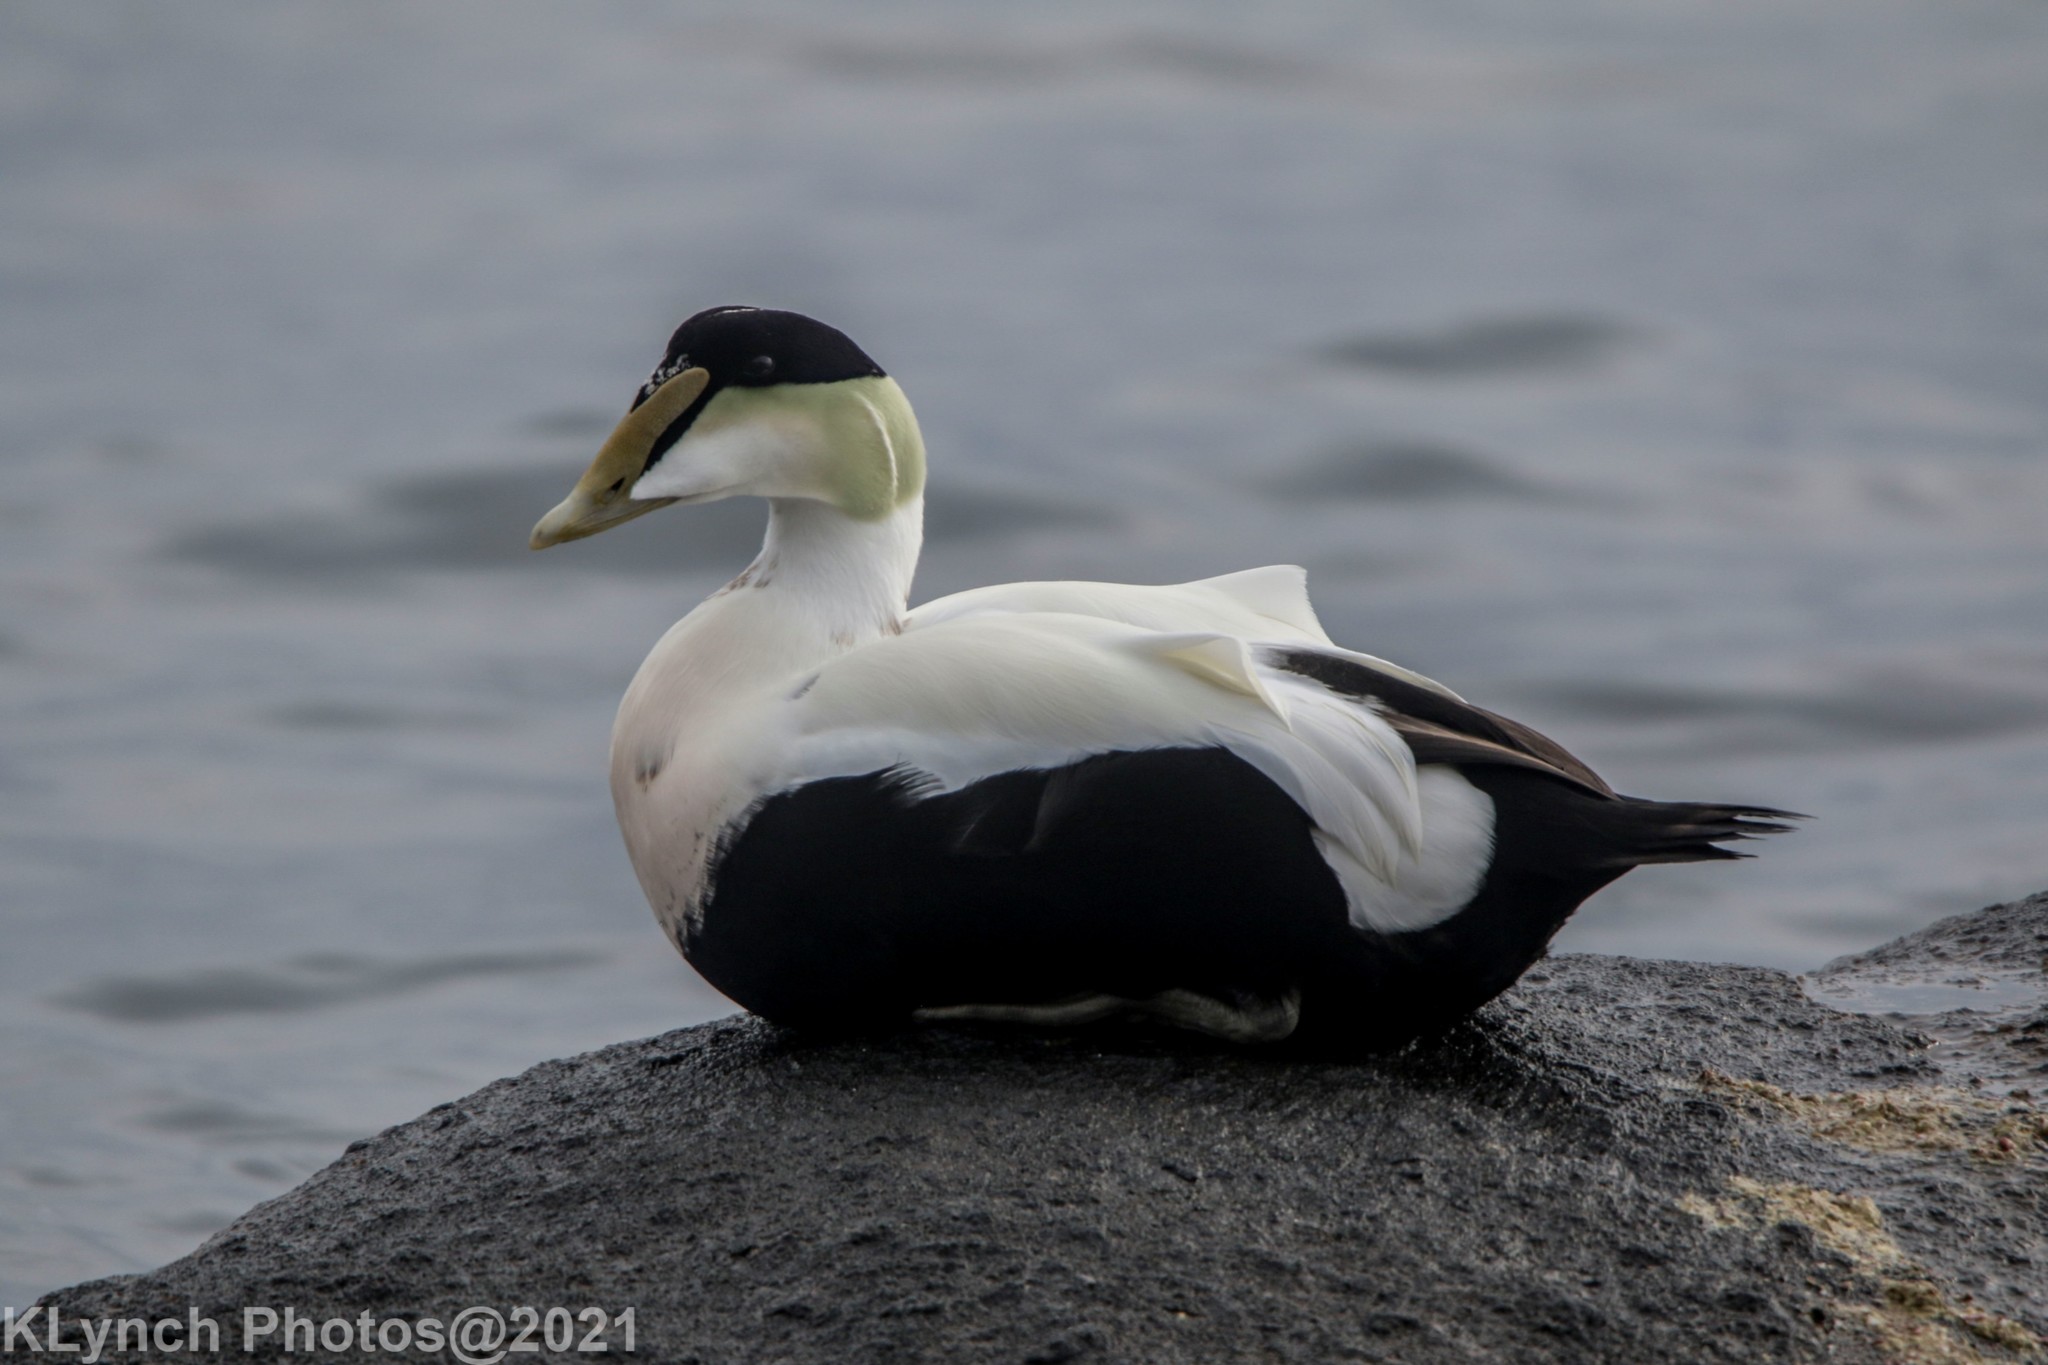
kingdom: Animalia
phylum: Chordata
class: Aves
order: Anseriformes
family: Anatidae
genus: Somateria
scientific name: Somateria mollissima
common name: Common eider
